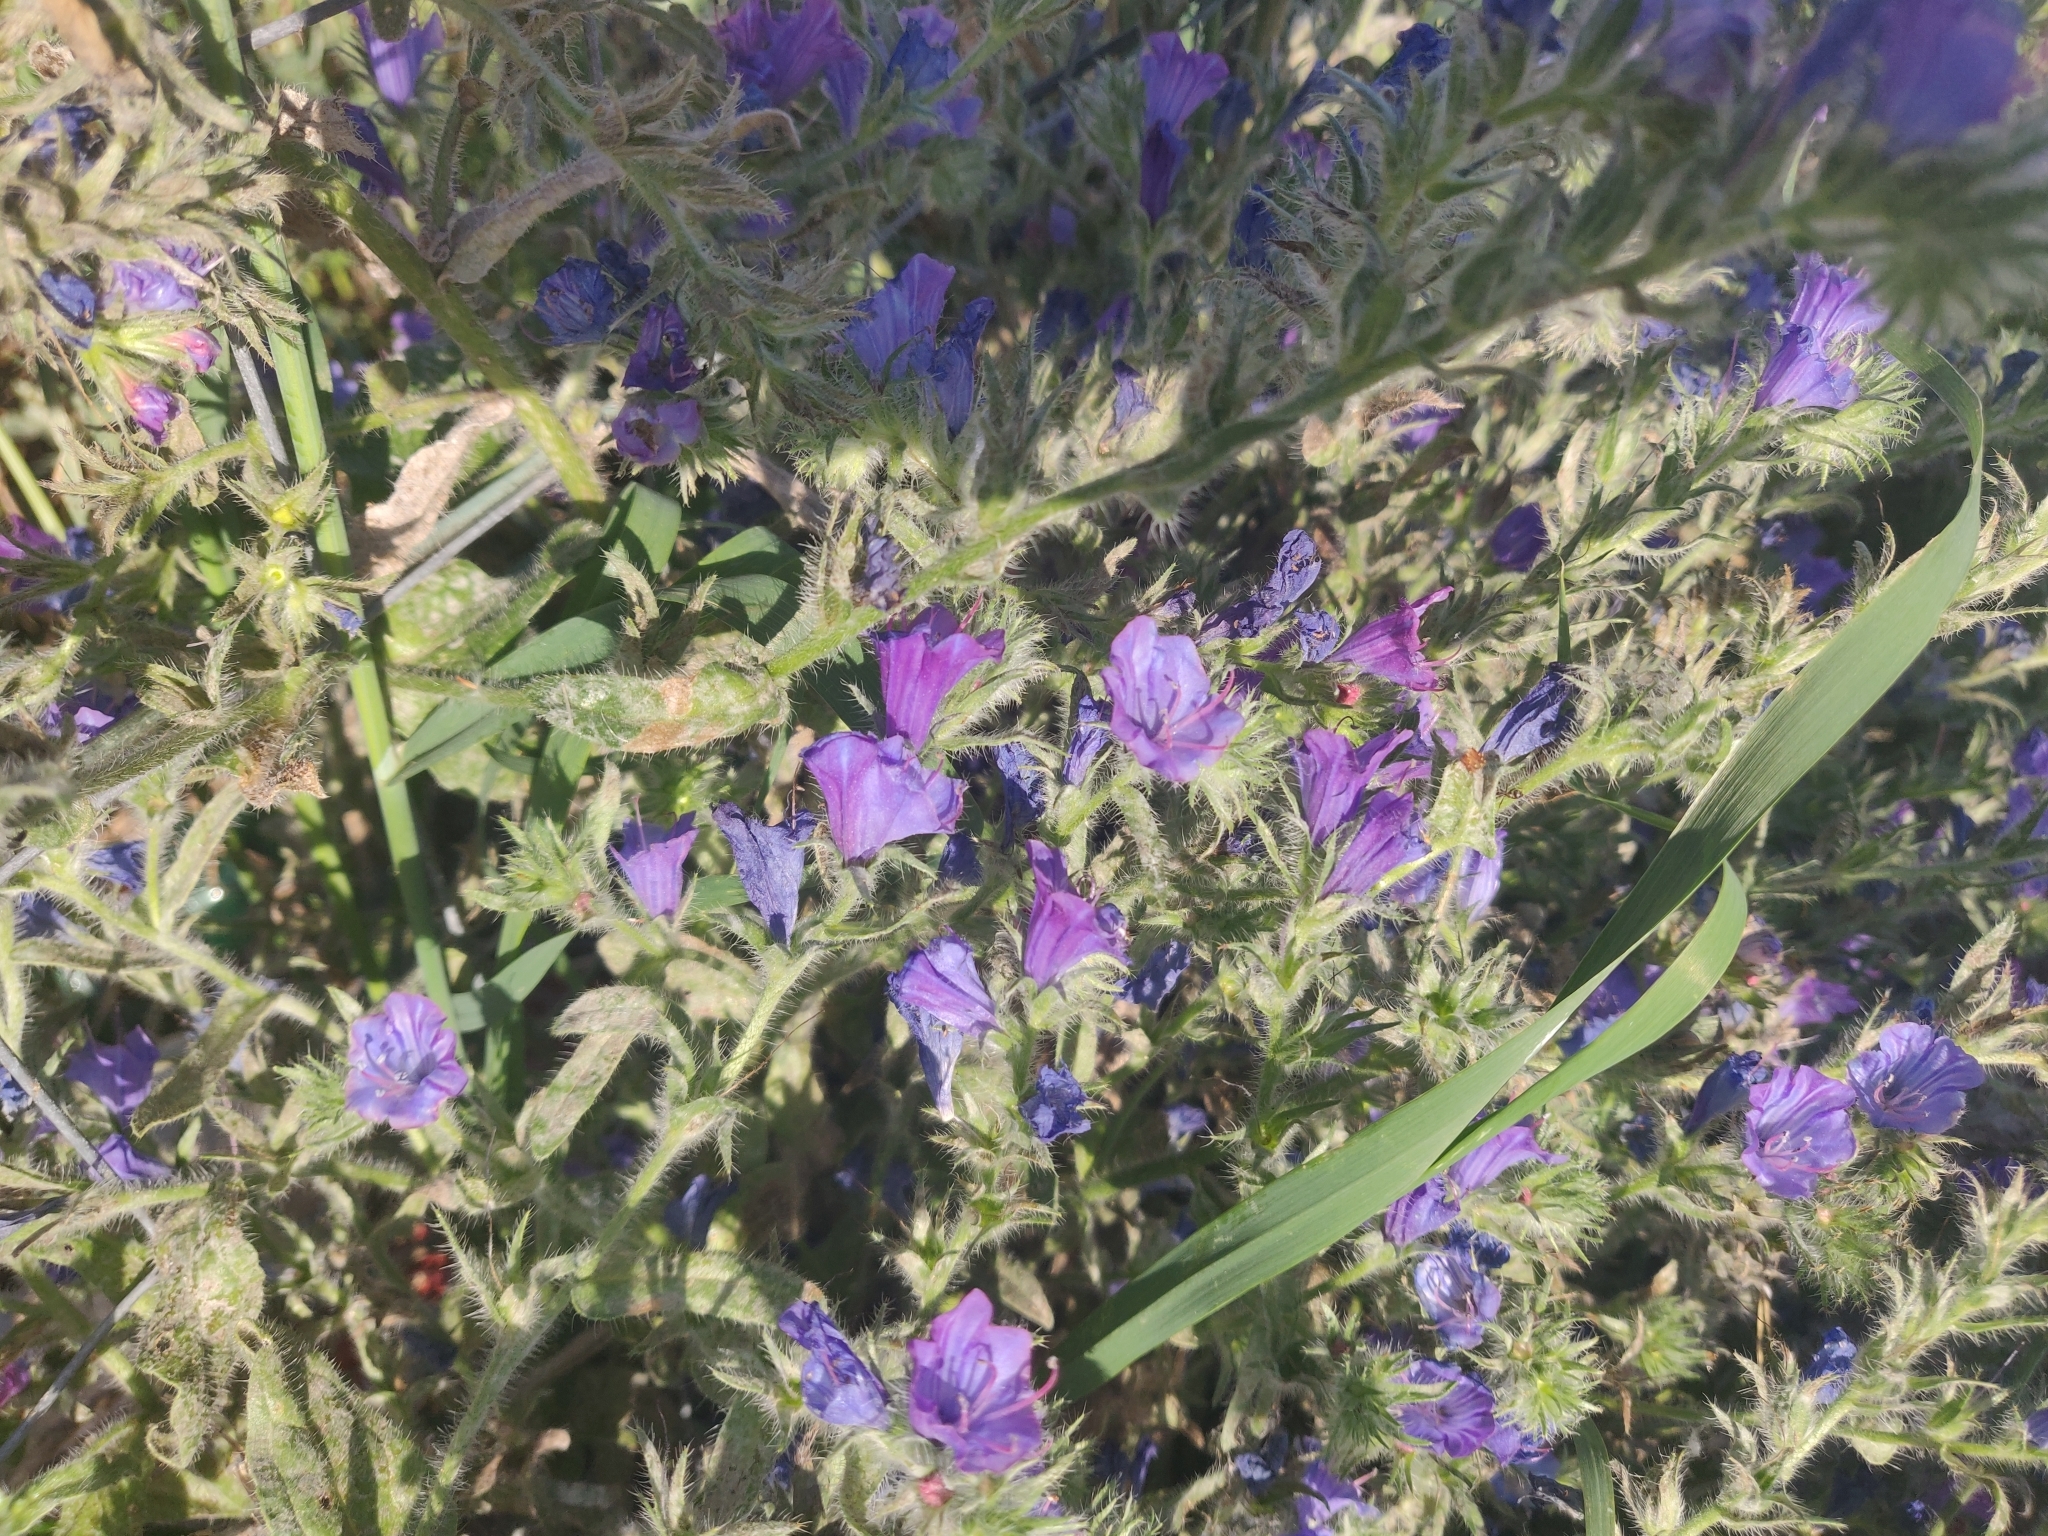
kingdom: Plantae
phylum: Tracheophyta
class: Magnoliopsida
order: Boraginales
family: Boraginaceae
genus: Echium
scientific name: Echium plantagineum
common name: Purple viper's-bugloss
